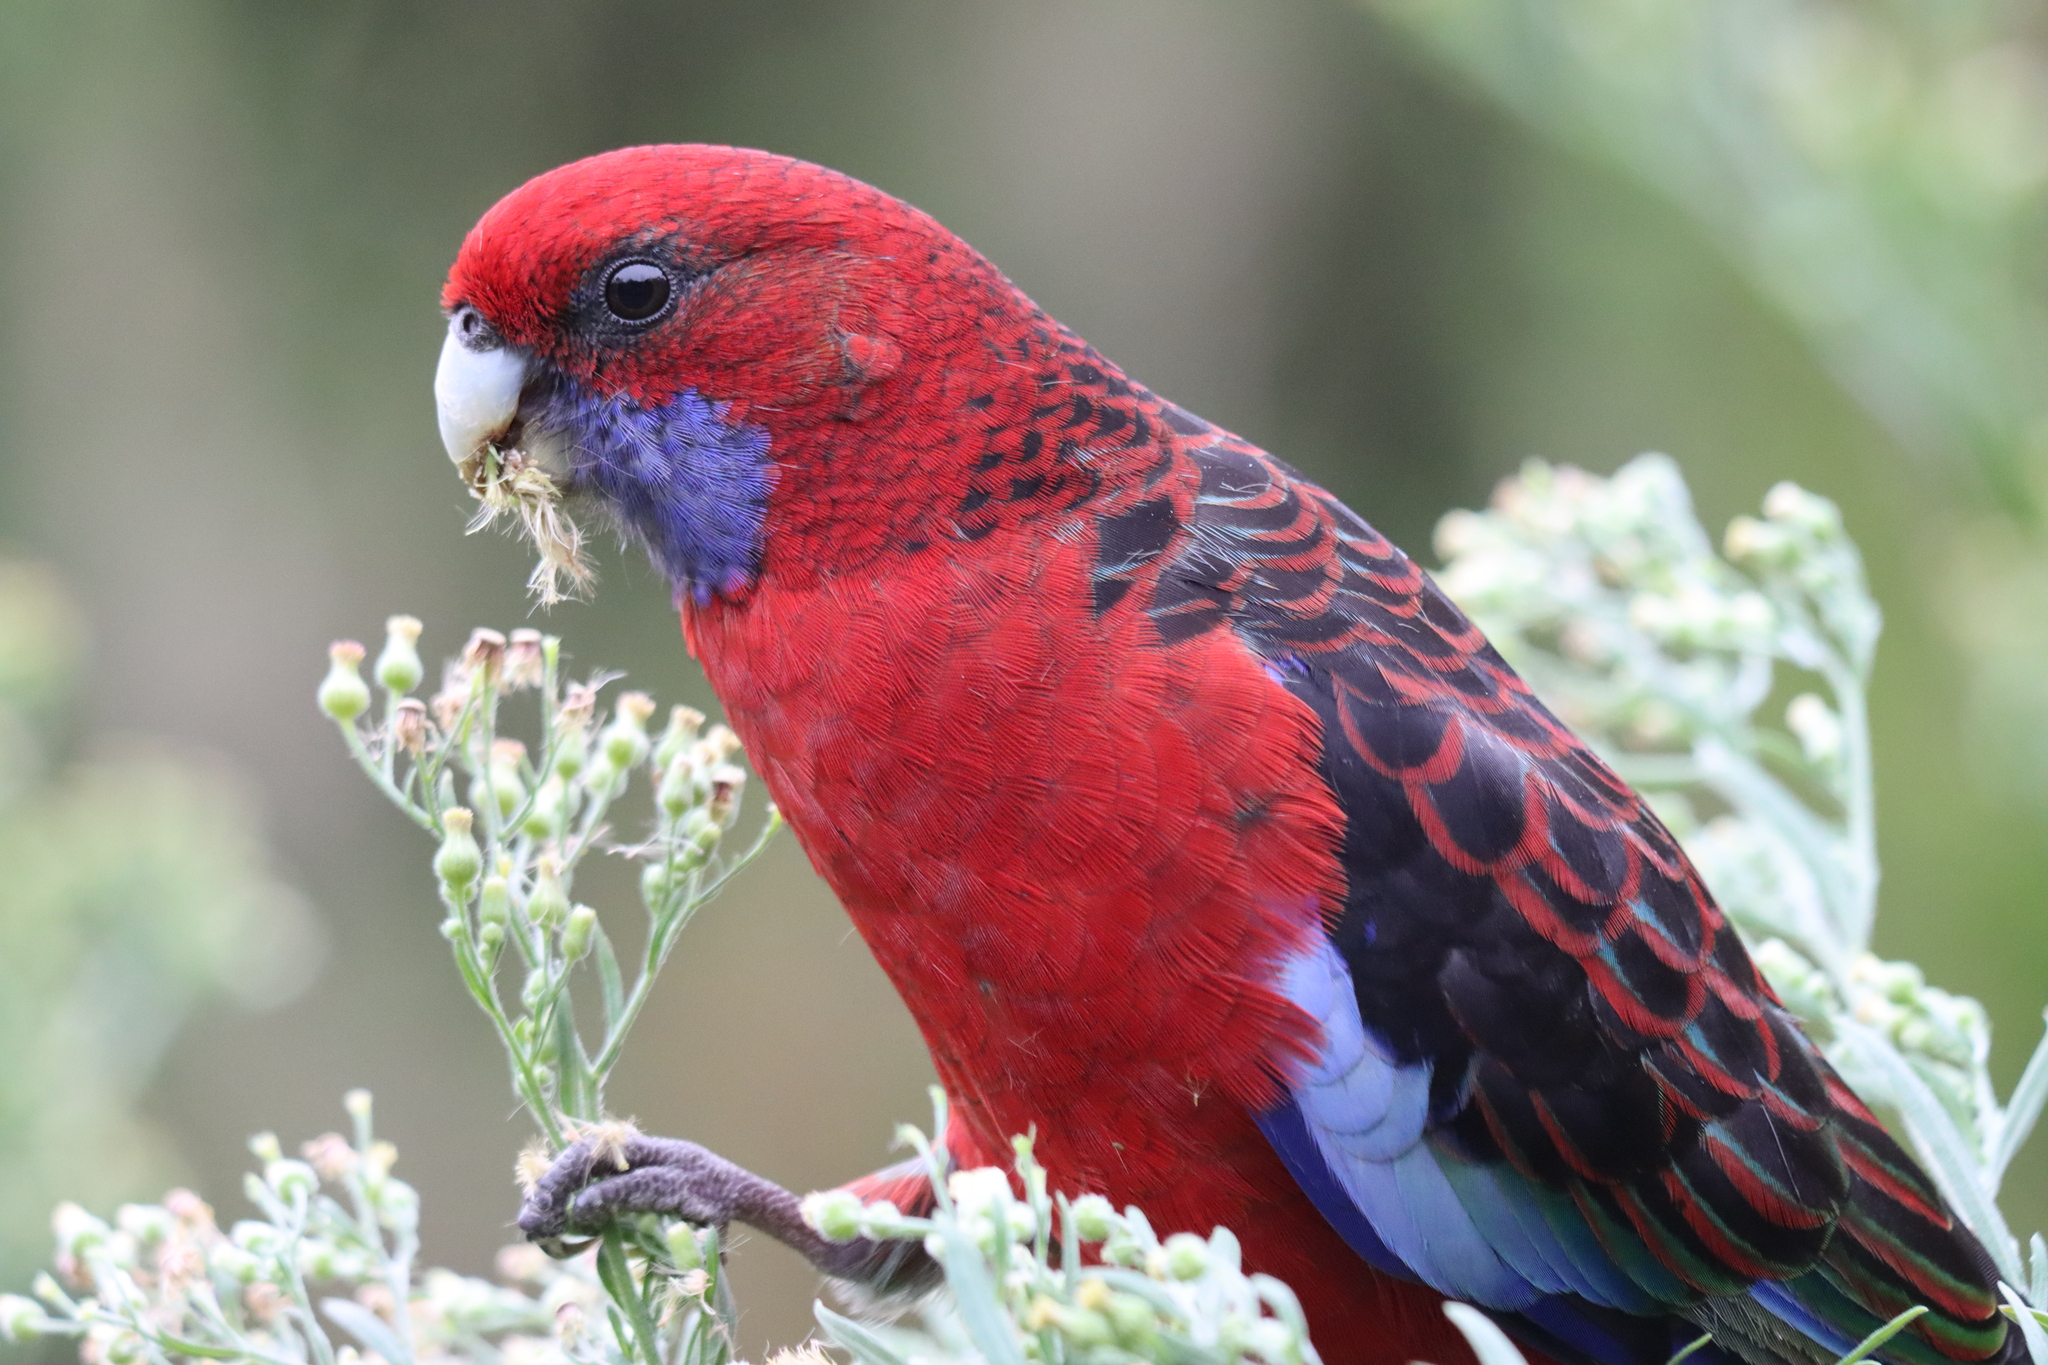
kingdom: Animalia
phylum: Chordata
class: Aves
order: Psittaciformes
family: Psittacidae
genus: Platycercus
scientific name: Platycercus elegans
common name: Crimson rosella
